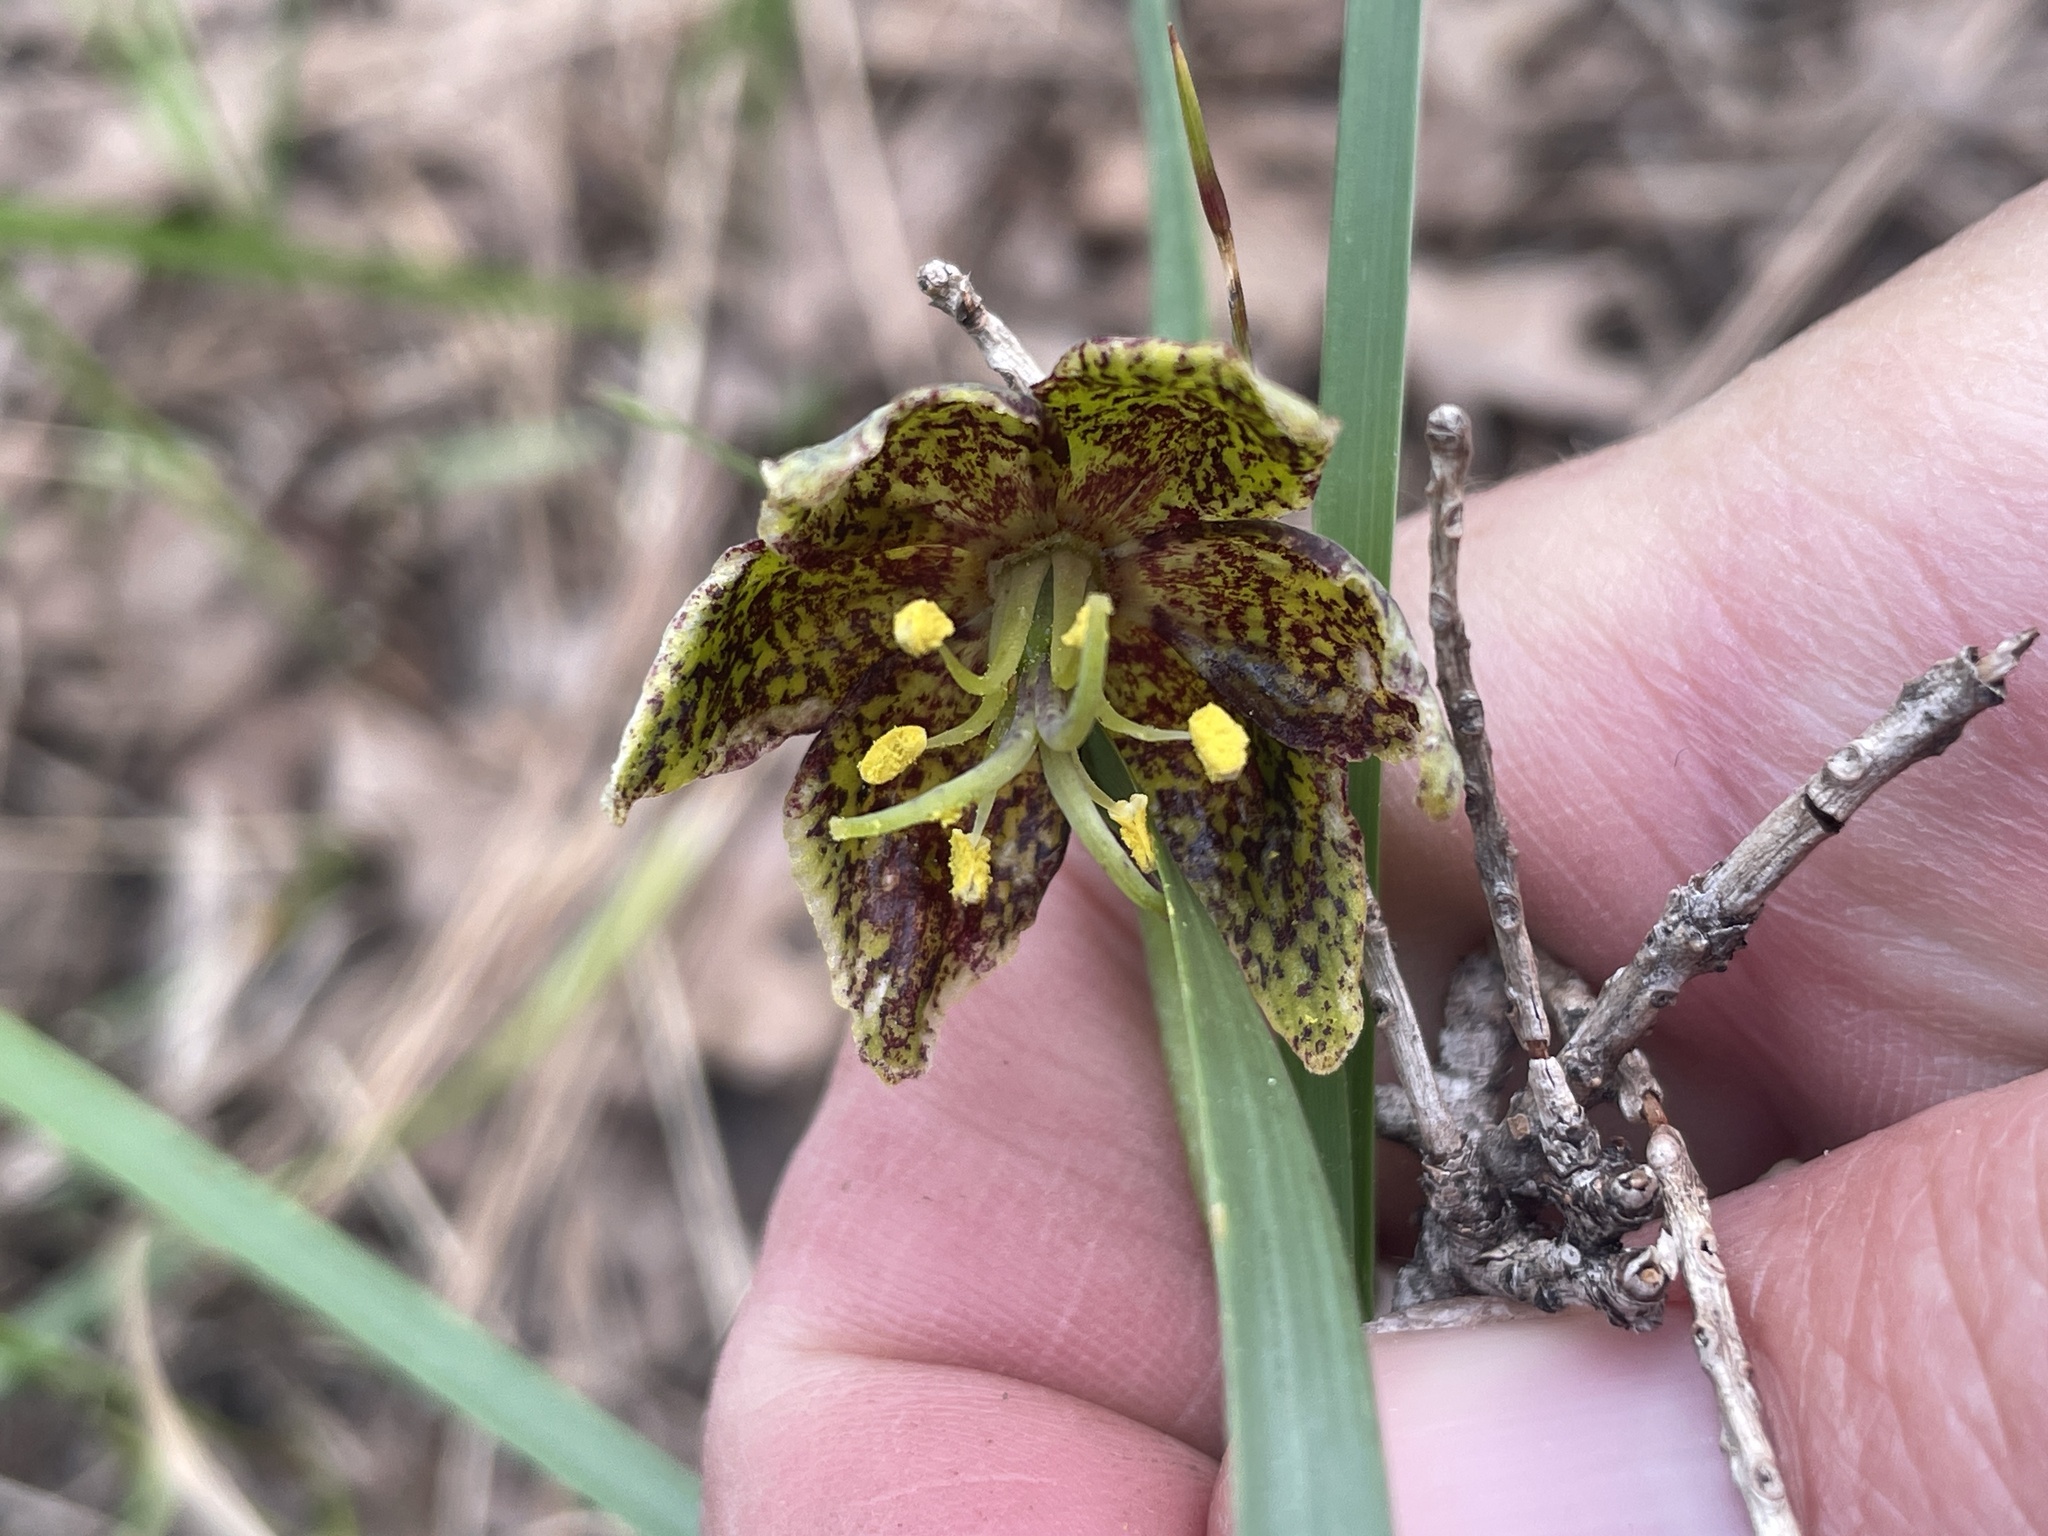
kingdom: Plantae
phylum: Tracheophyta
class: Liliopsida
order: Liliales
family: Liliaceae
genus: Fritillaria
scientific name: Fritillaria atropurpurea
